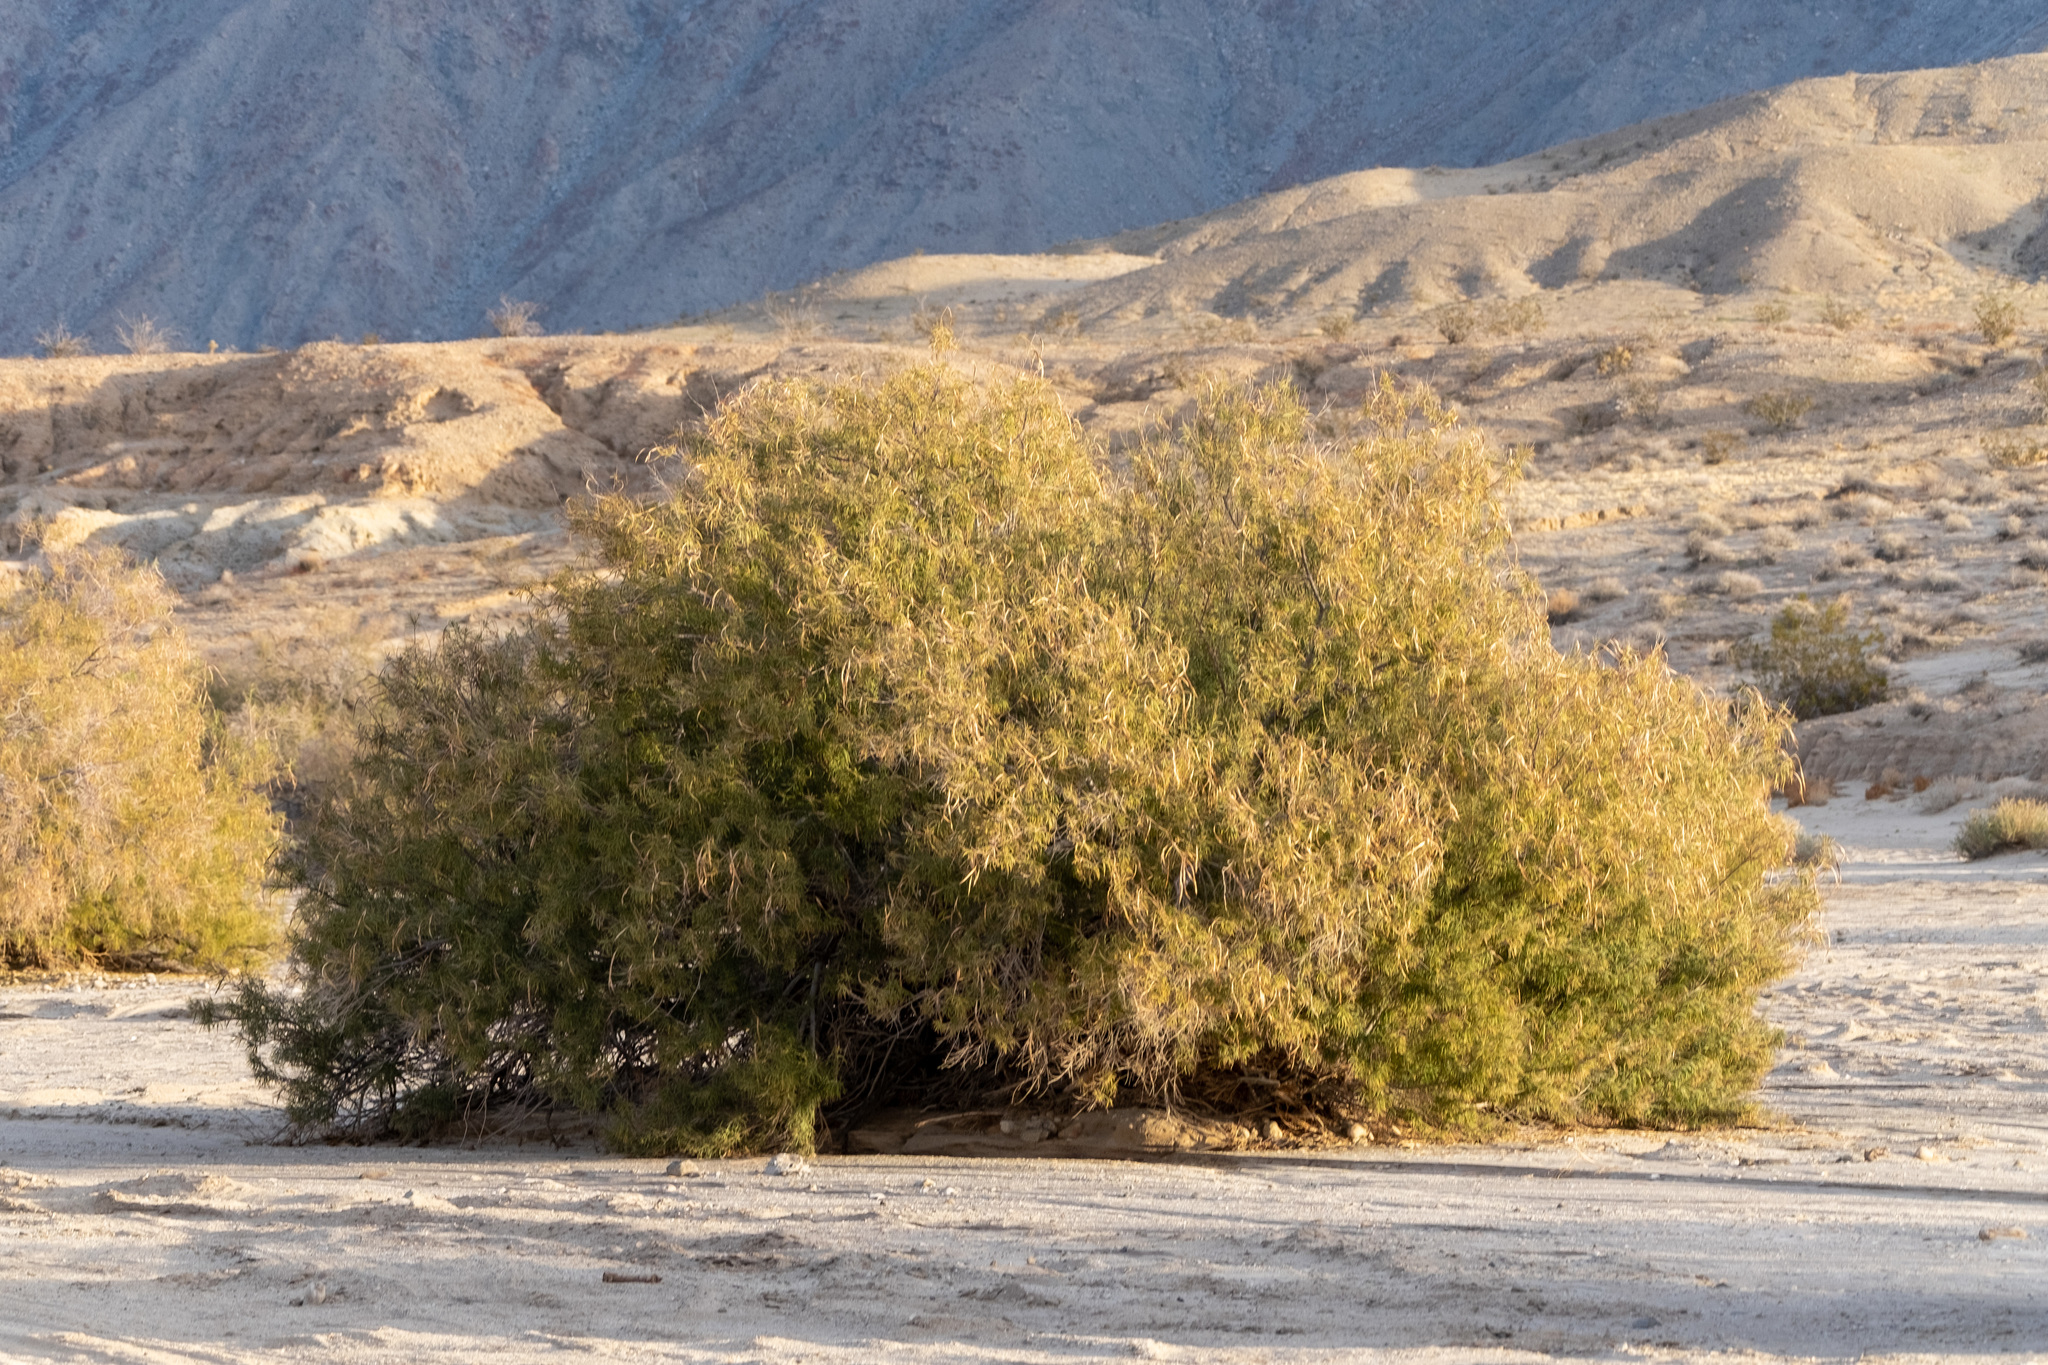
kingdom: Plantae
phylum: Tracheophyta
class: Magnoliopsida
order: Lamiales
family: Bignoniaceae
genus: Chilopsis
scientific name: Chilopsis linearis
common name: Desert-willow
